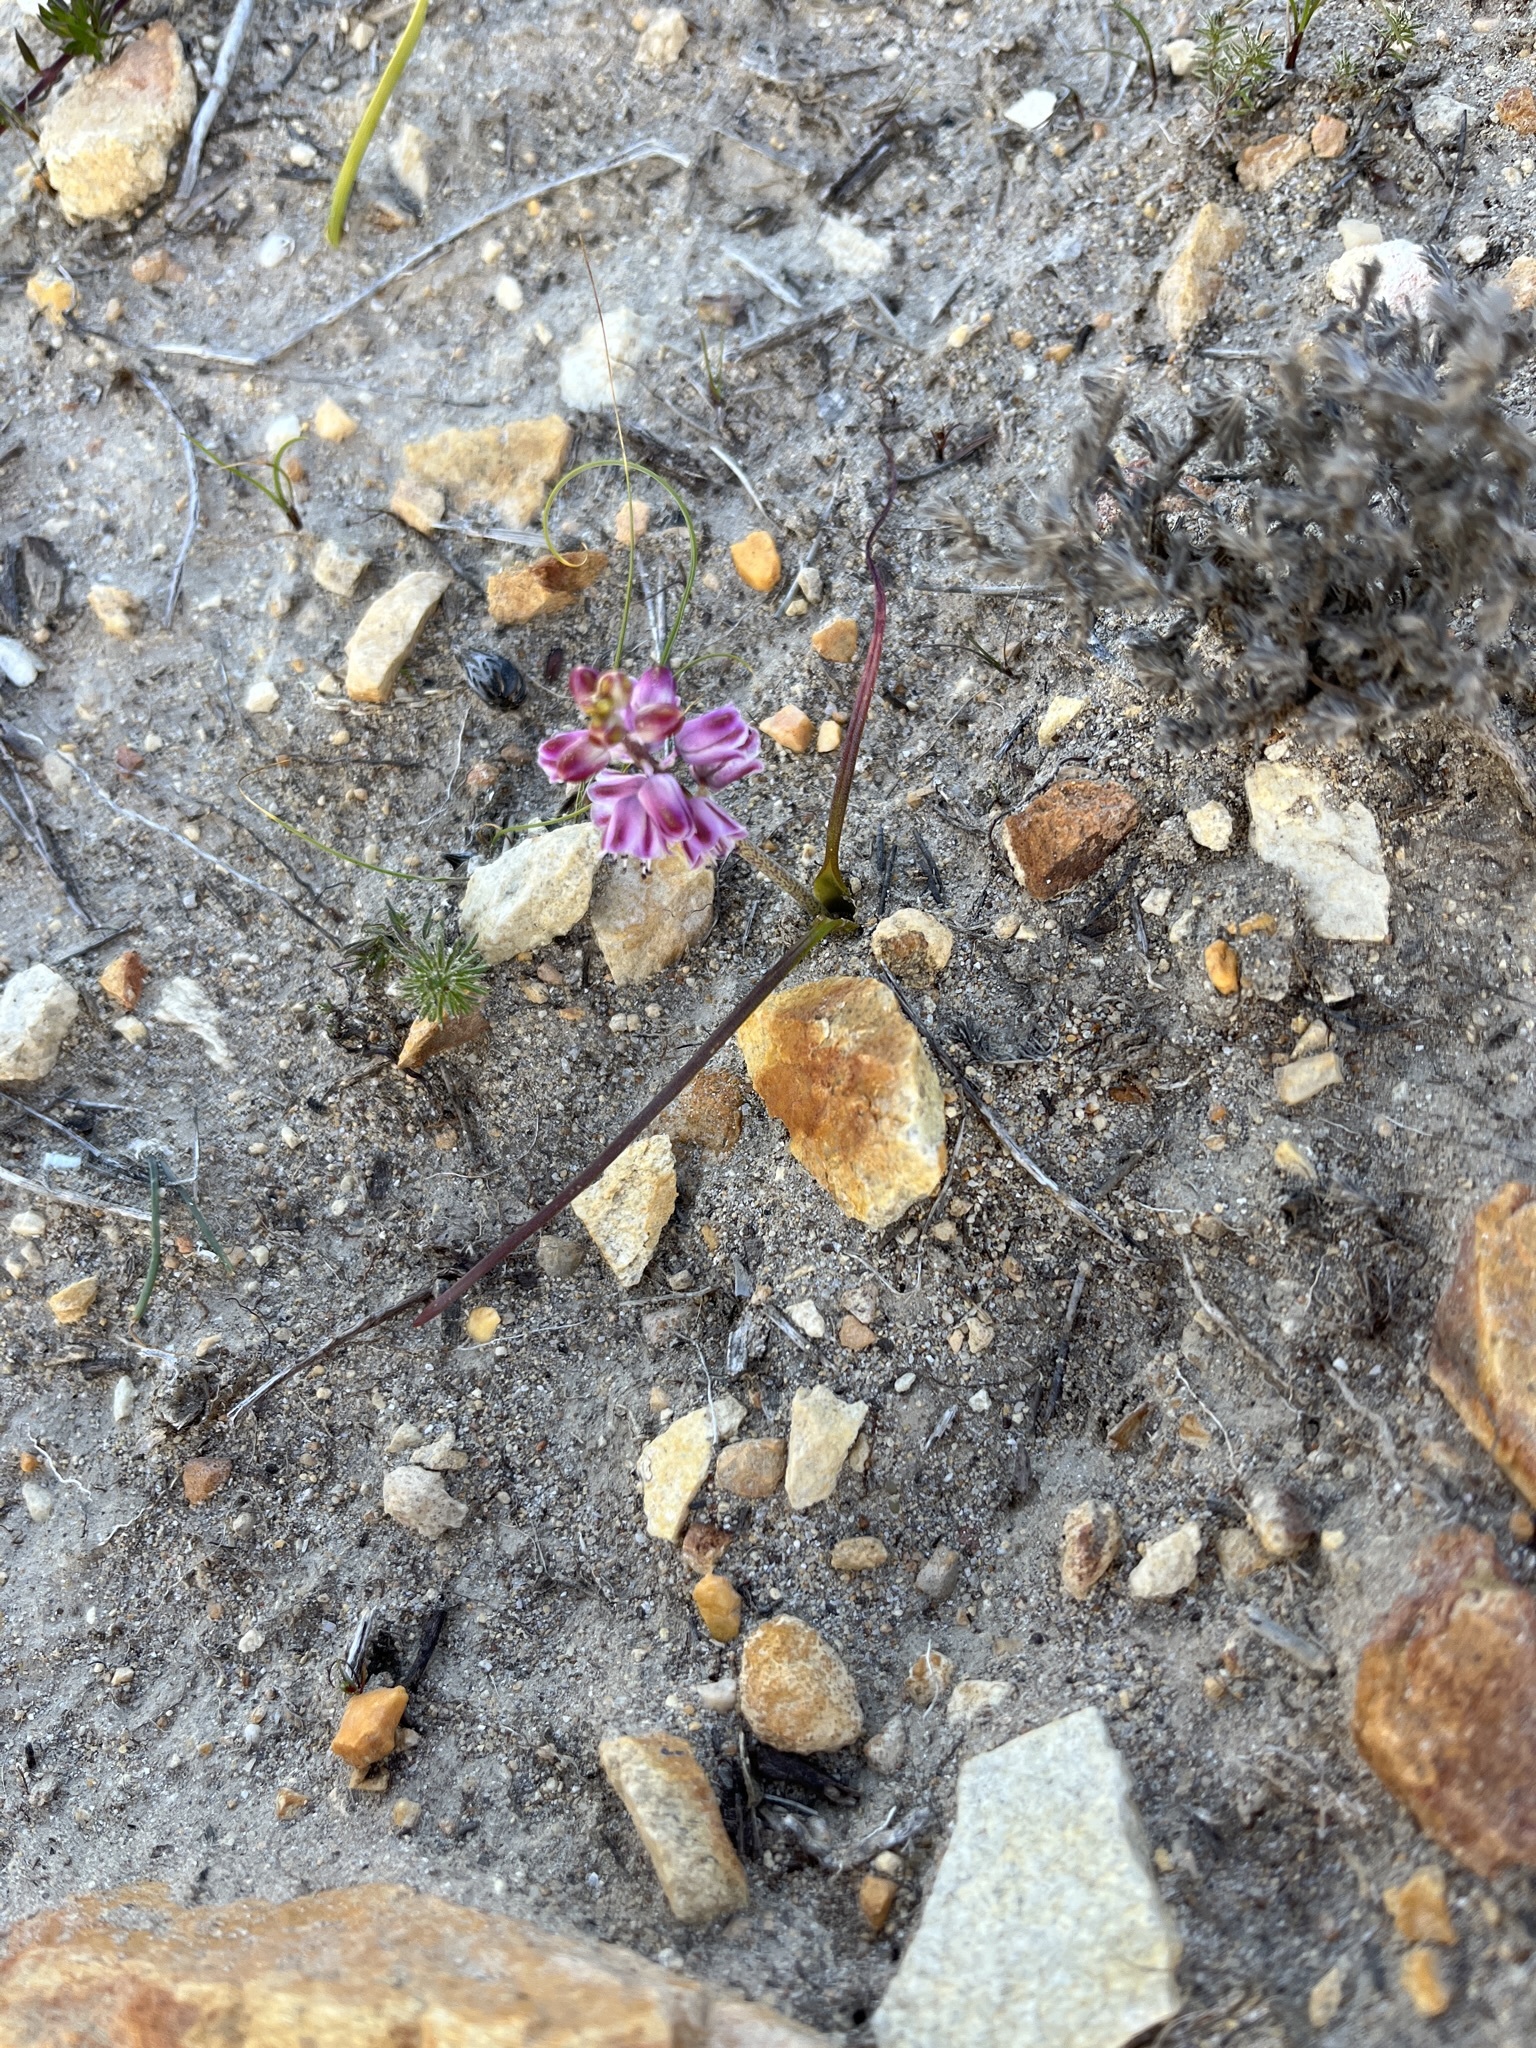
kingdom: Plantae
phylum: Tracheophyta
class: Liliopsida
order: Asparagales
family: Asparagaceae
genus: Lachenalia
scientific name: Lachenalia magentea
